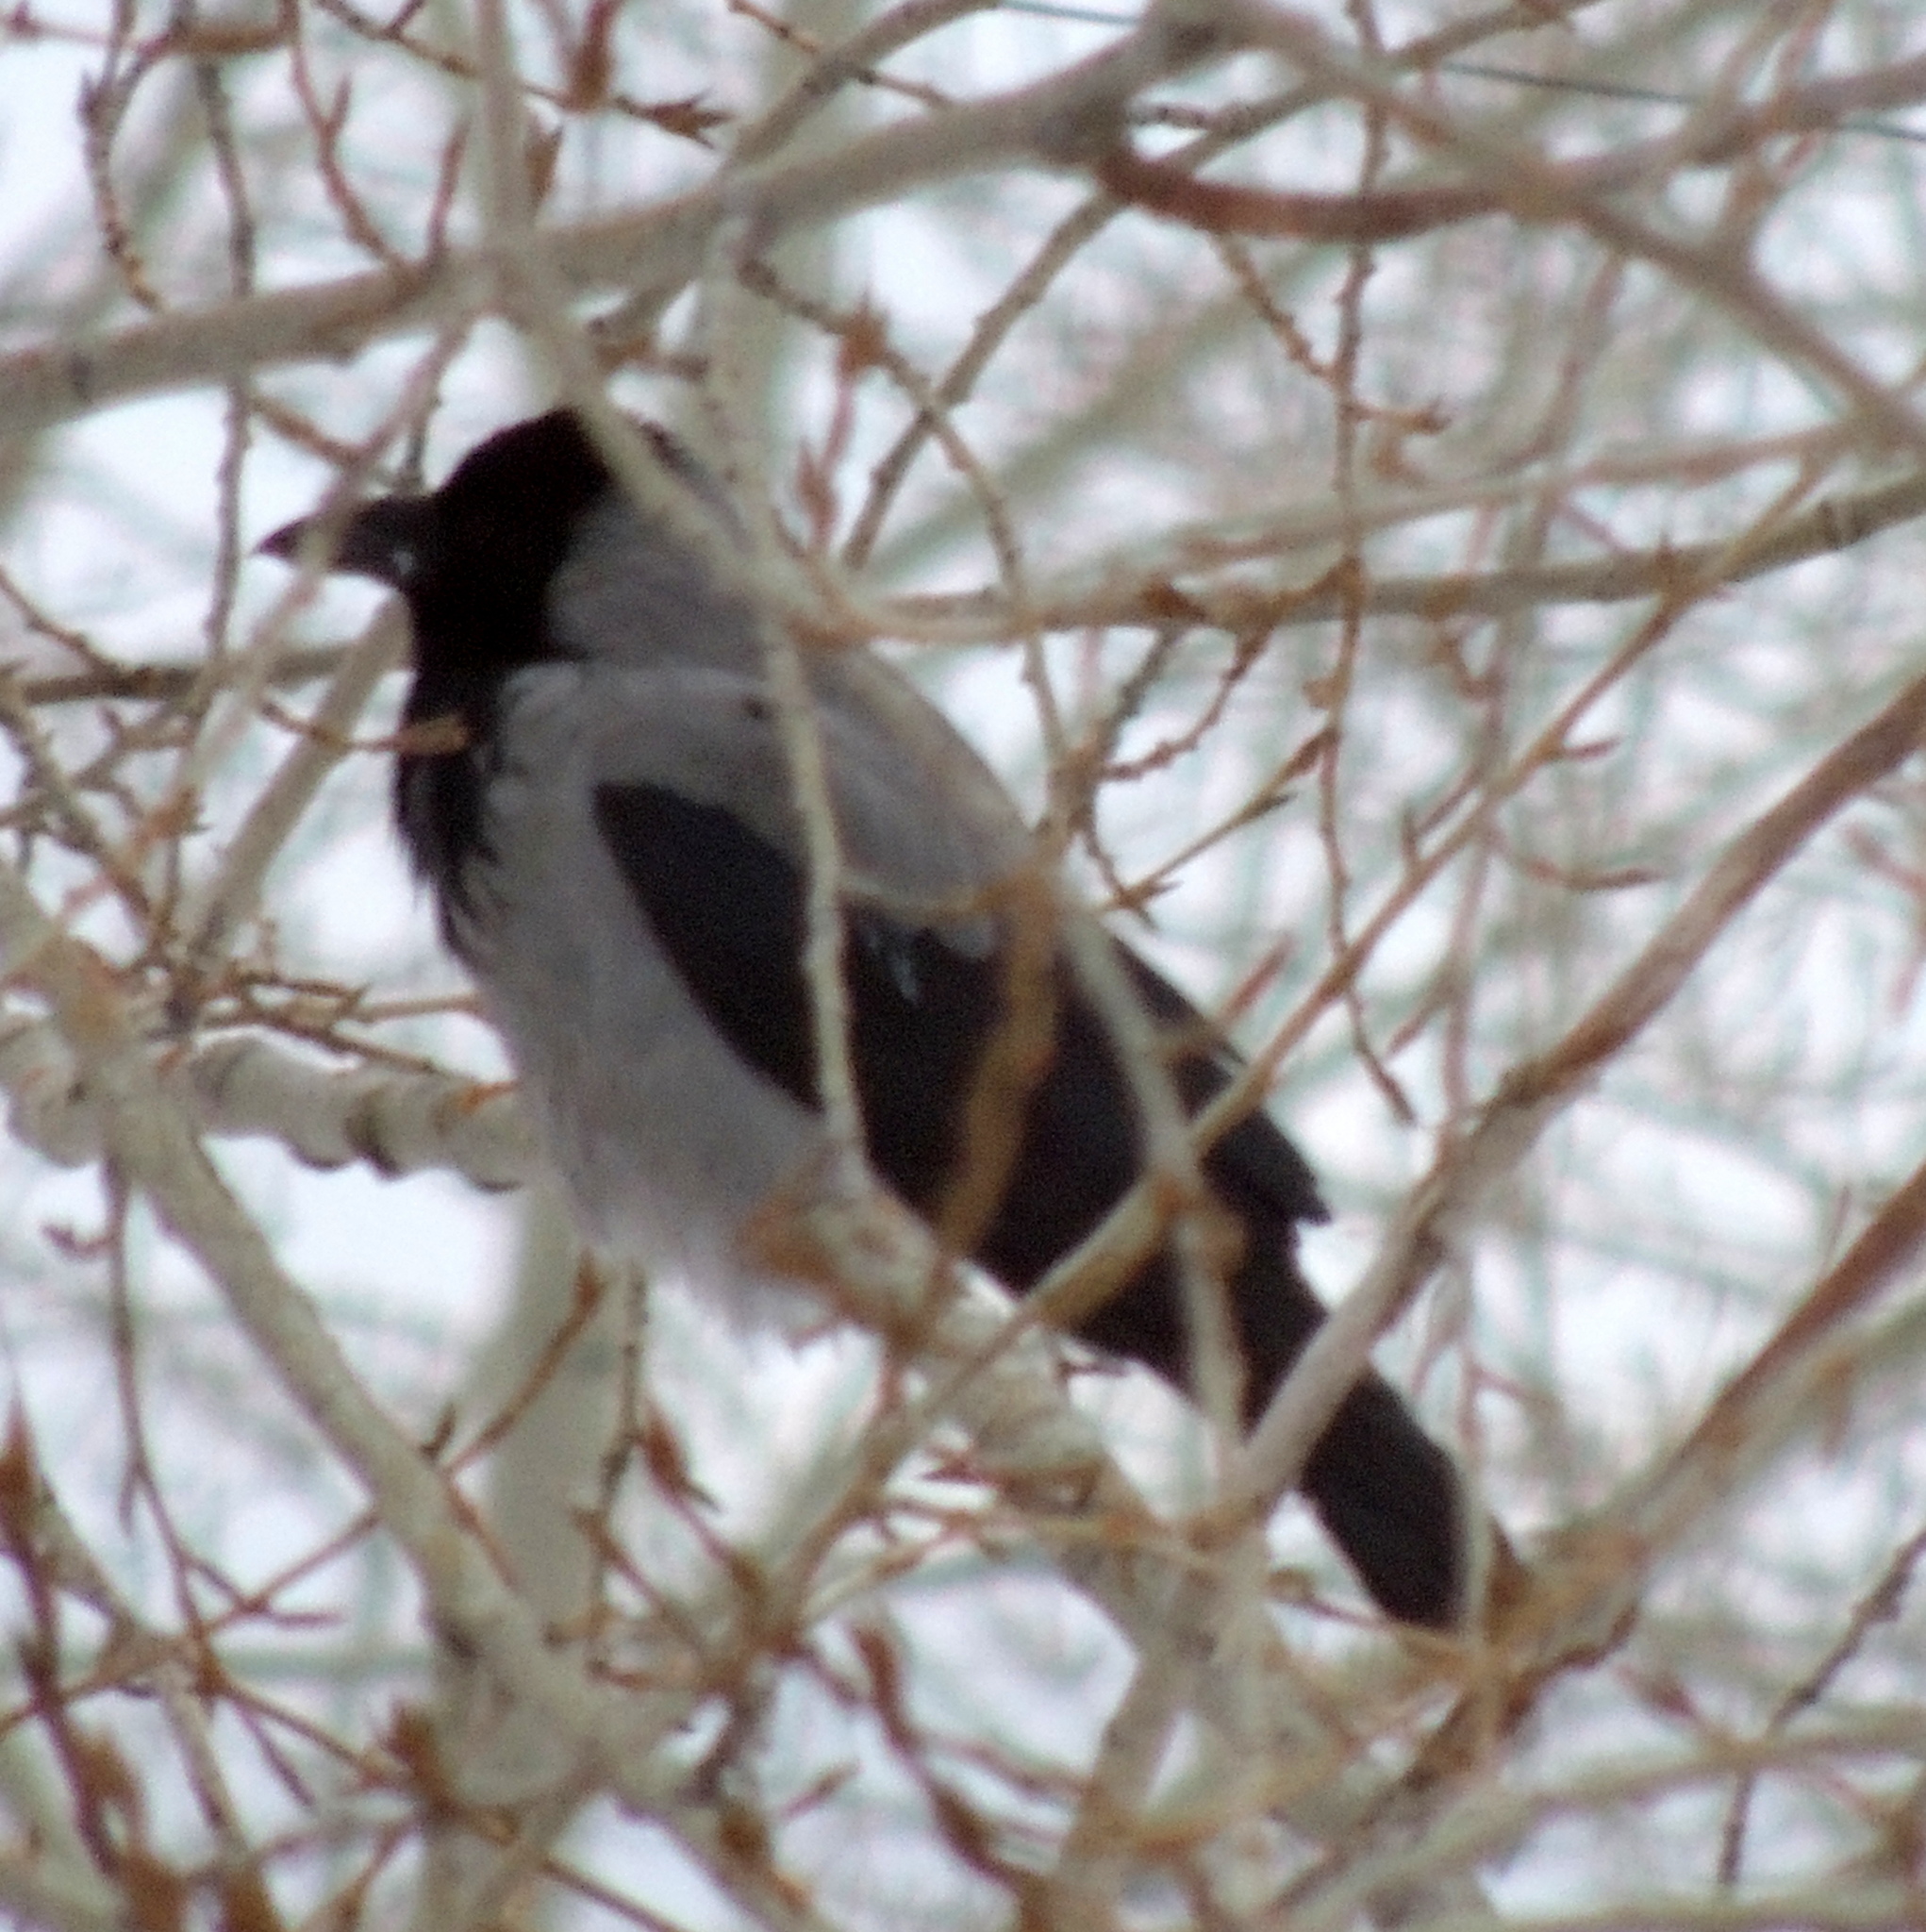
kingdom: Animalia
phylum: Chordata
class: Aves
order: Passeriformes
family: Corvidae
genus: Corvus
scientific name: Corvus cornix
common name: Hooded crow
